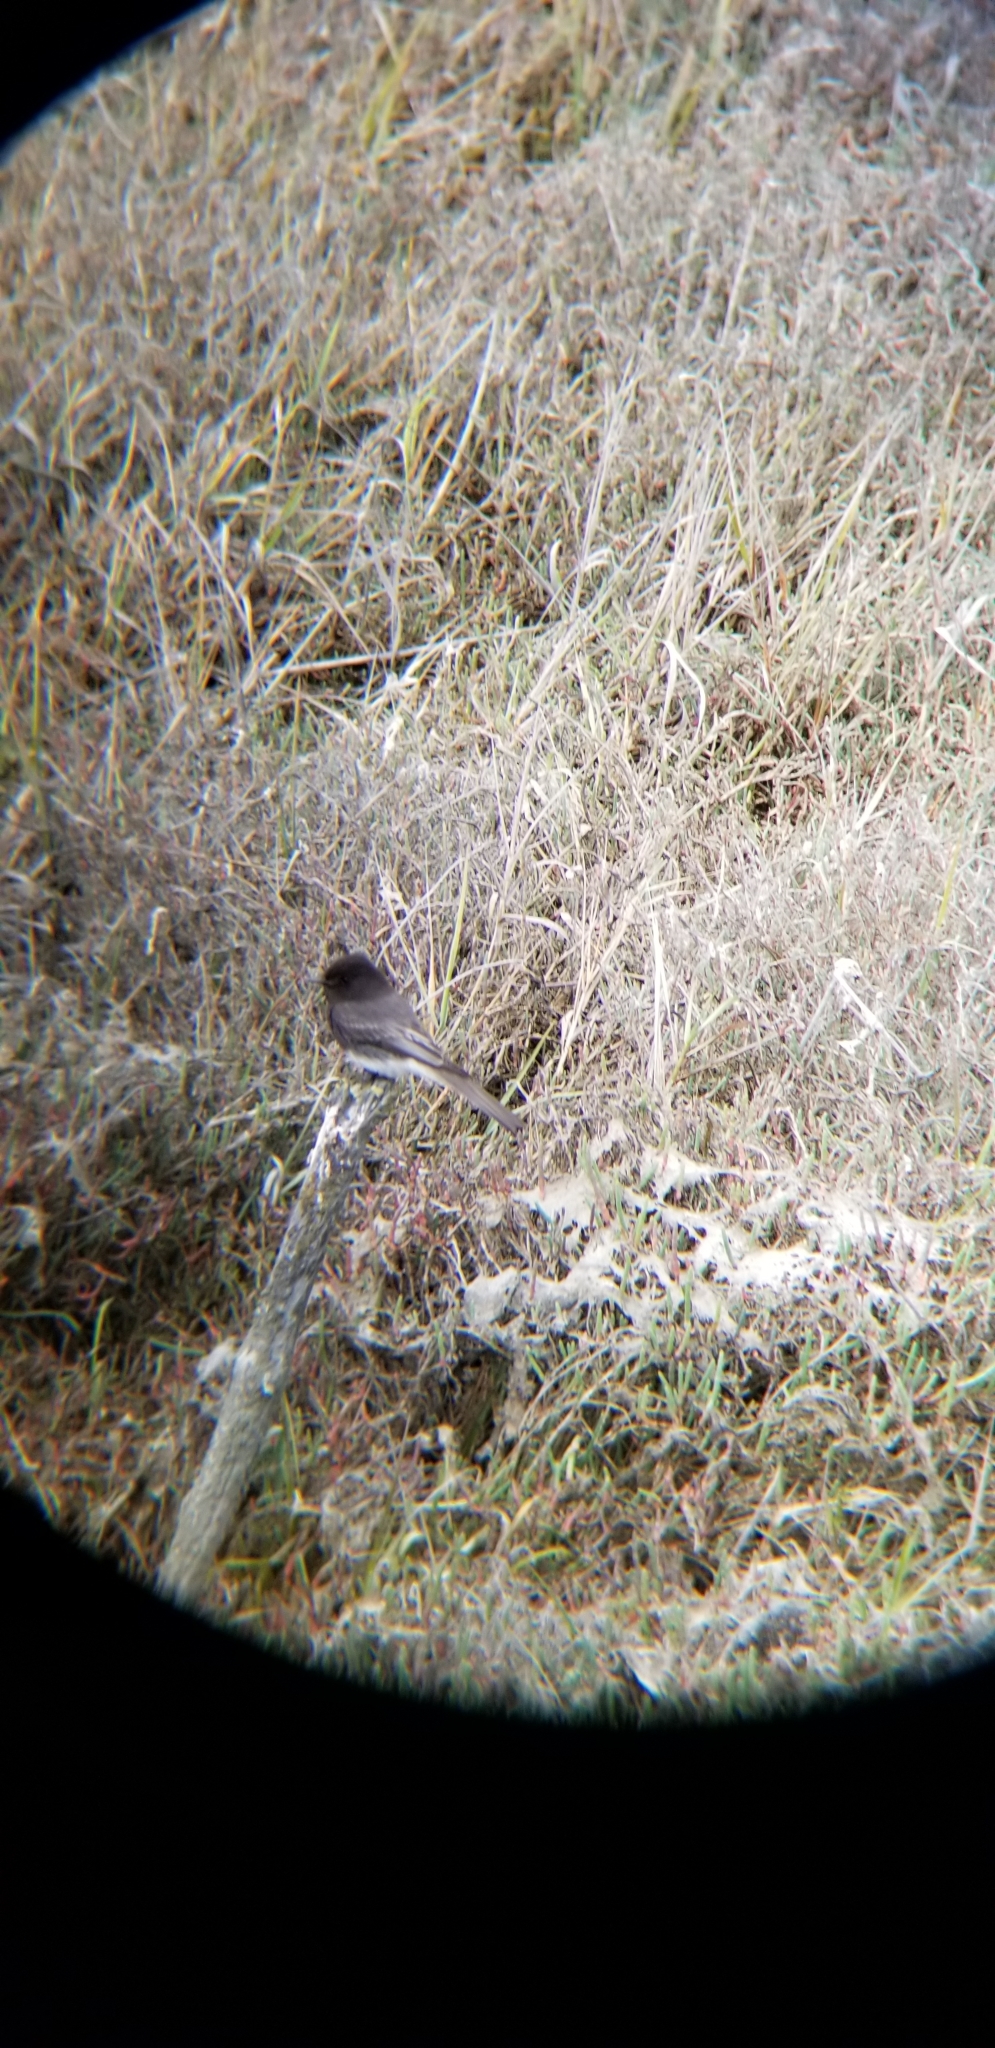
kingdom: Animalia
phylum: Chordata
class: Aves
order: Passeriformes
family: Tyrannidae
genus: Sayornis
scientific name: Sayornis nigricans
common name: Black phoebe
